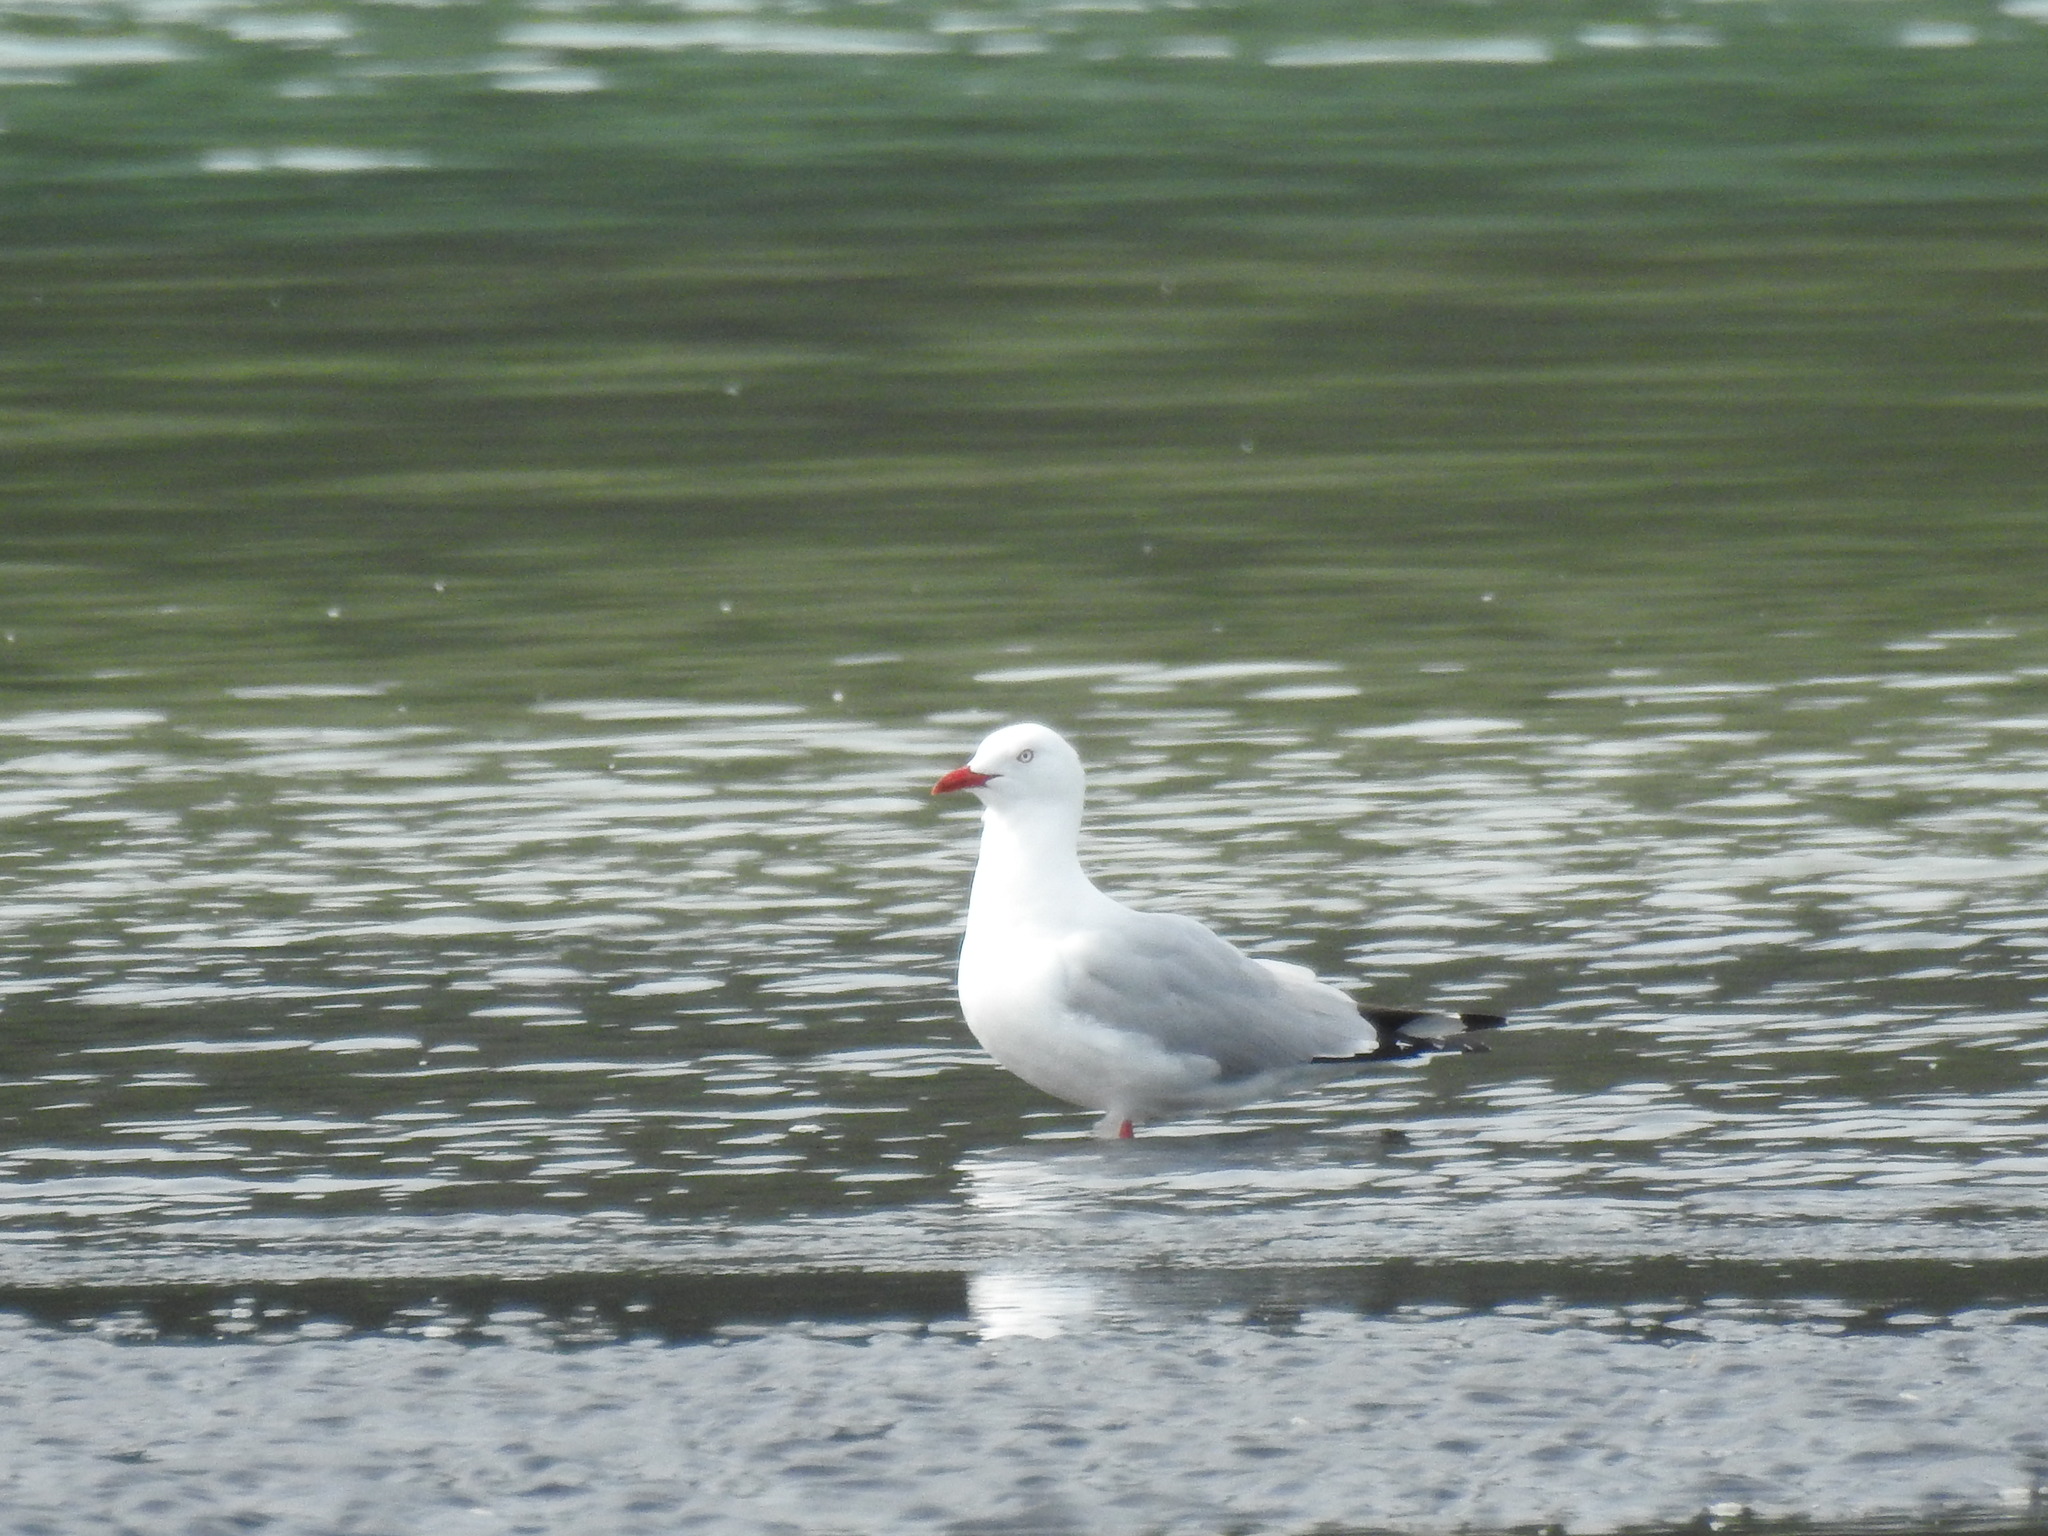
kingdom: Animalia
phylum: Chordata
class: Aves
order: Charadriiformes
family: Laridae
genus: Chroicocephalus
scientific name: Chroicocephalus novaehollandiae
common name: Silver gull
